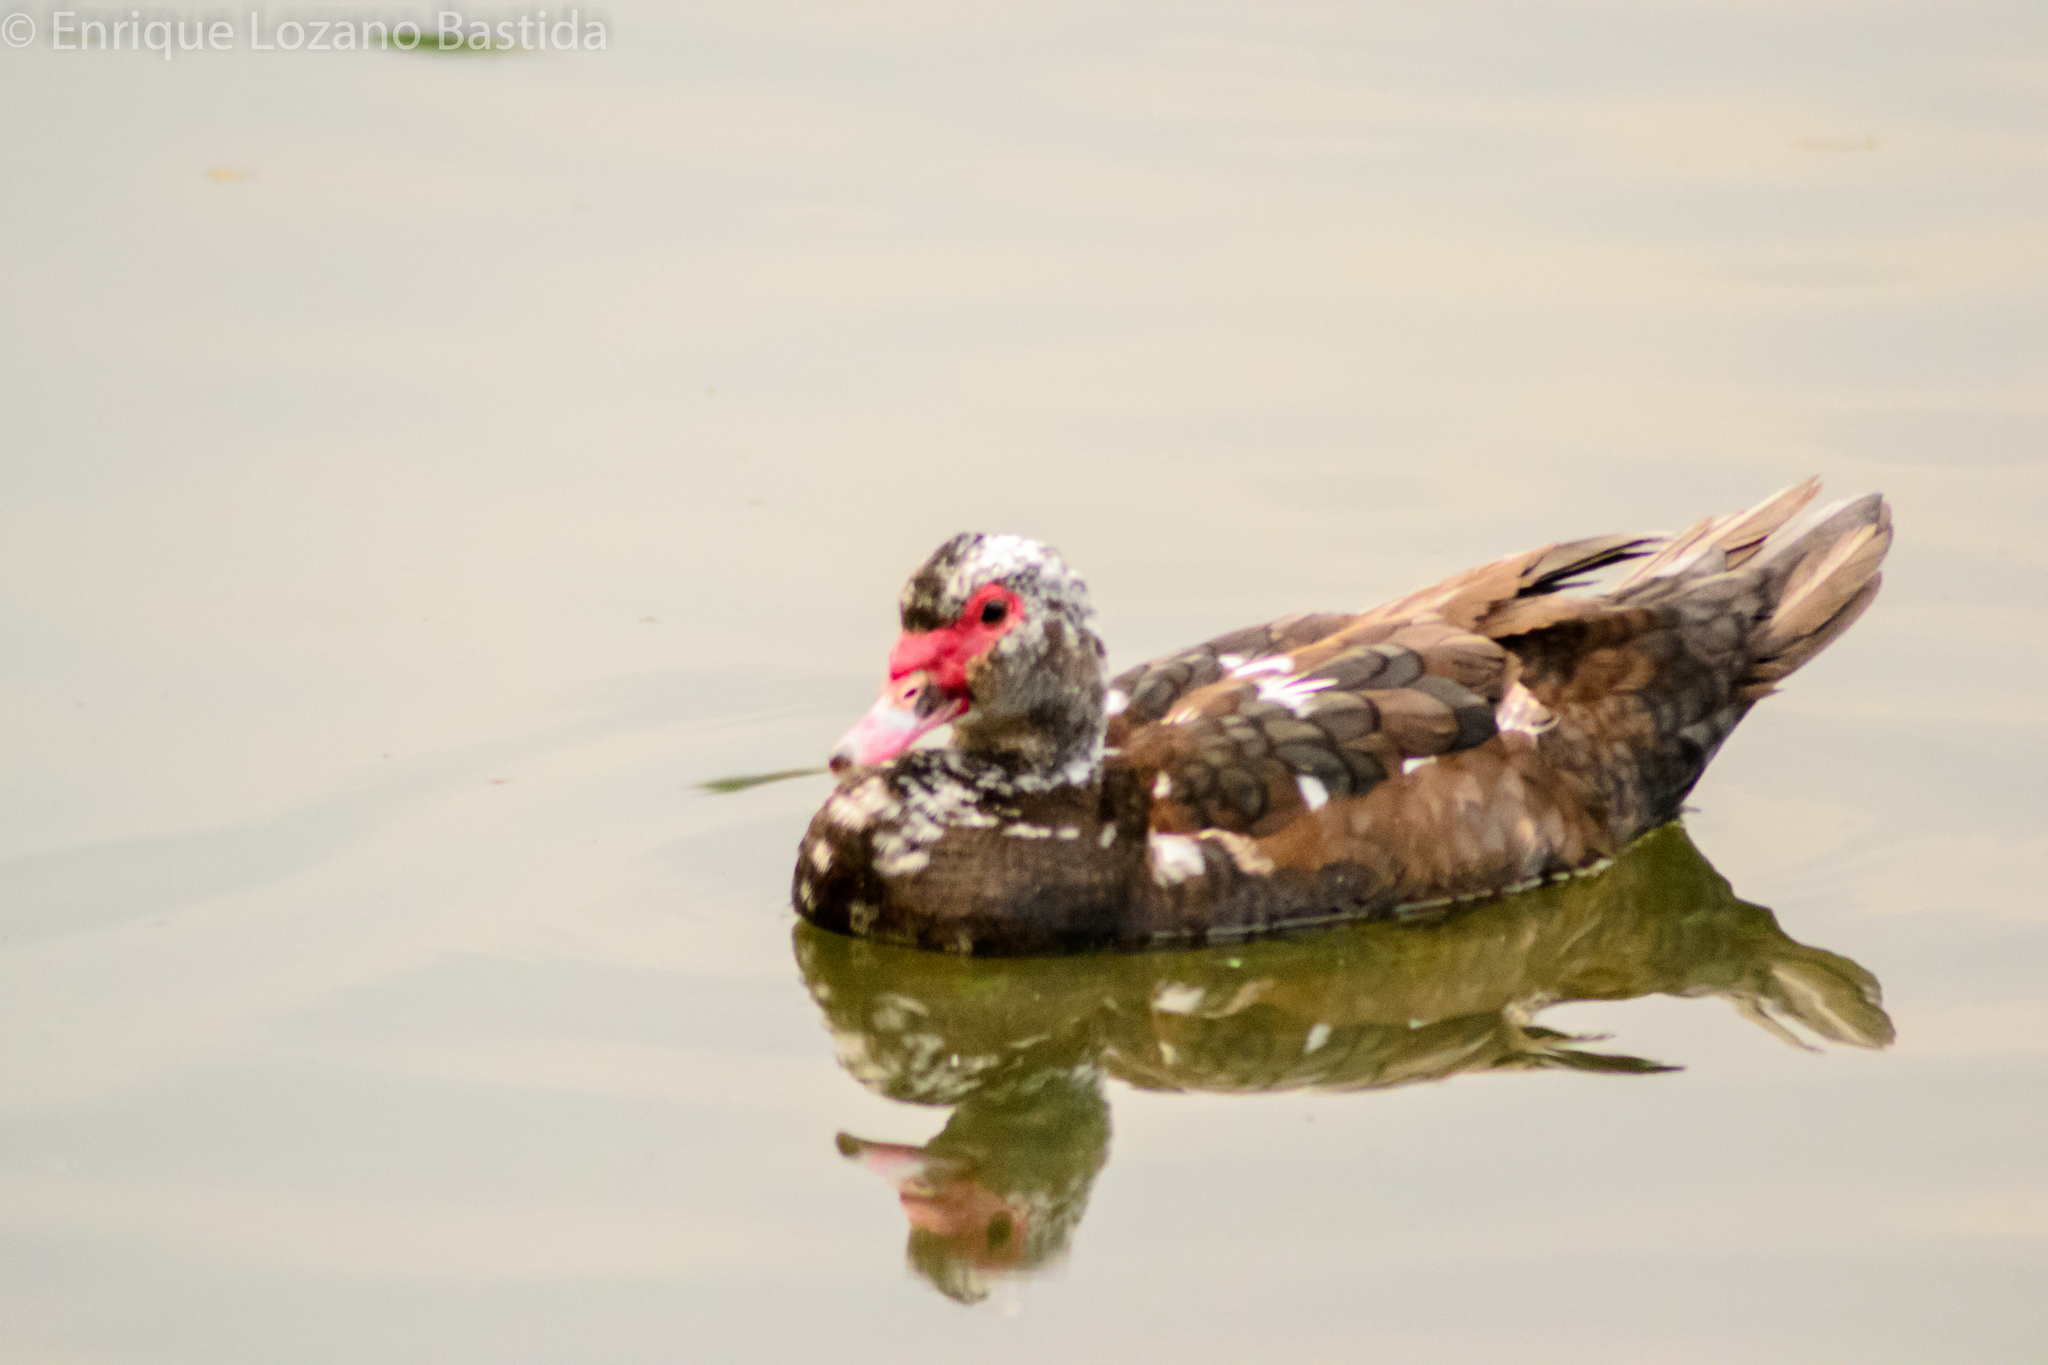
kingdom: Animalia
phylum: Chordata
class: Aves
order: Anseriformes
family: Anatidae
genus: Cairina
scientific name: Cairina moschata
